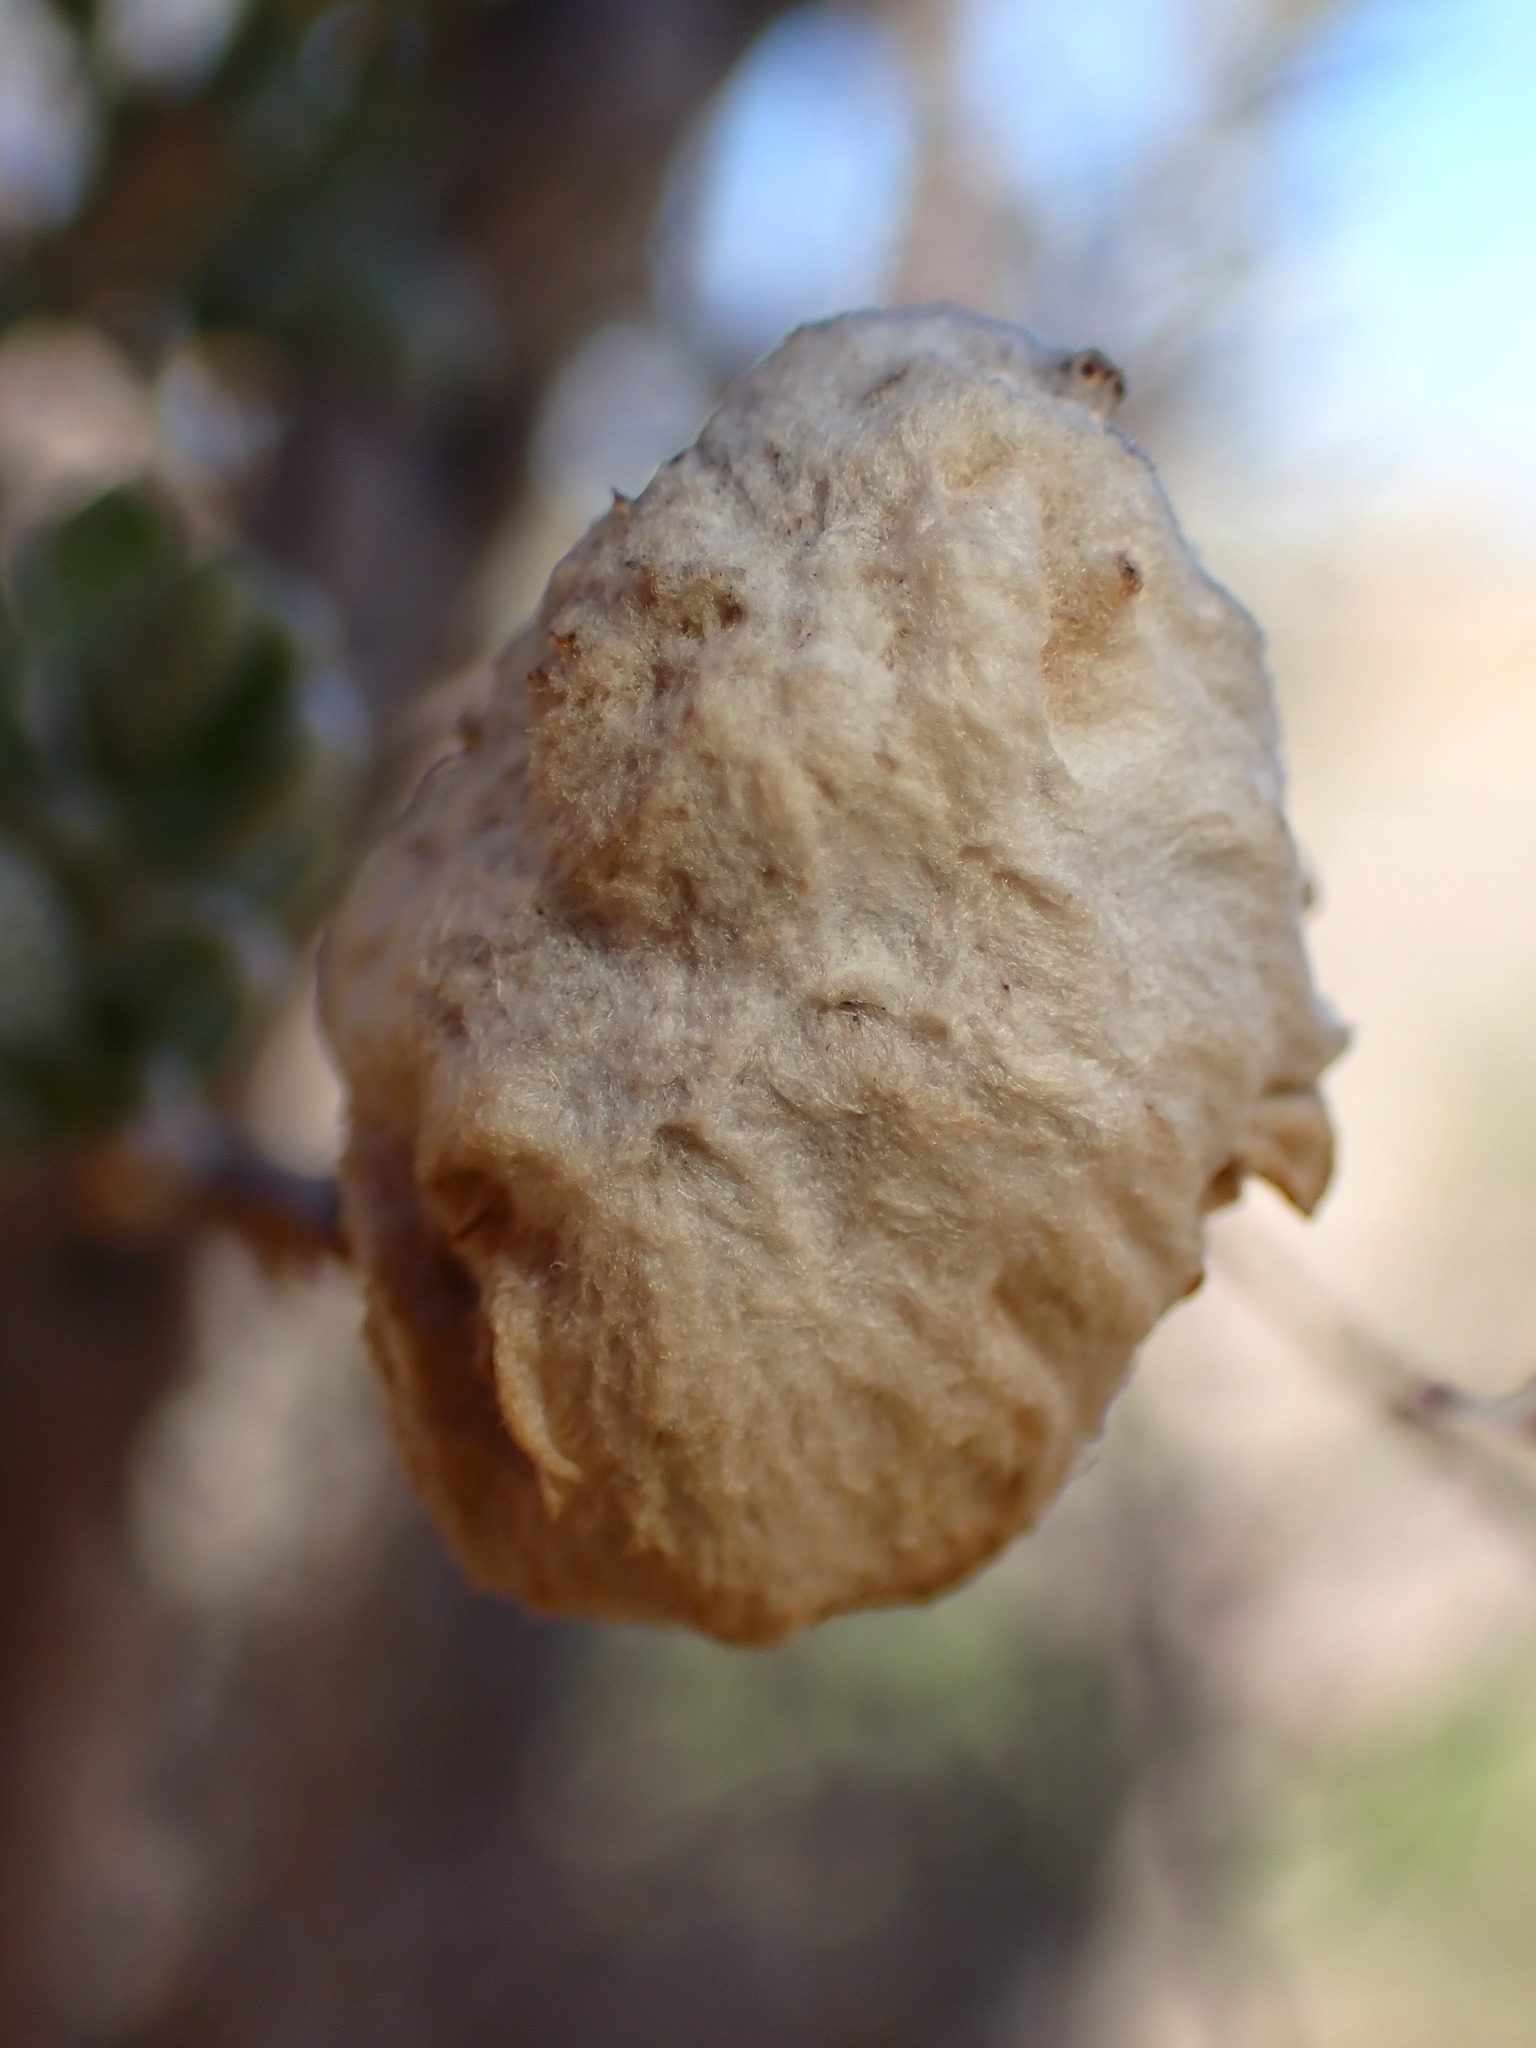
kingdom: Animalia
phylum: Arthropoda
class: Insecta
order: Diptera
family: Cecidomyiidae
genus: Asphondylia
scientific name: Asphondylia floccosa
